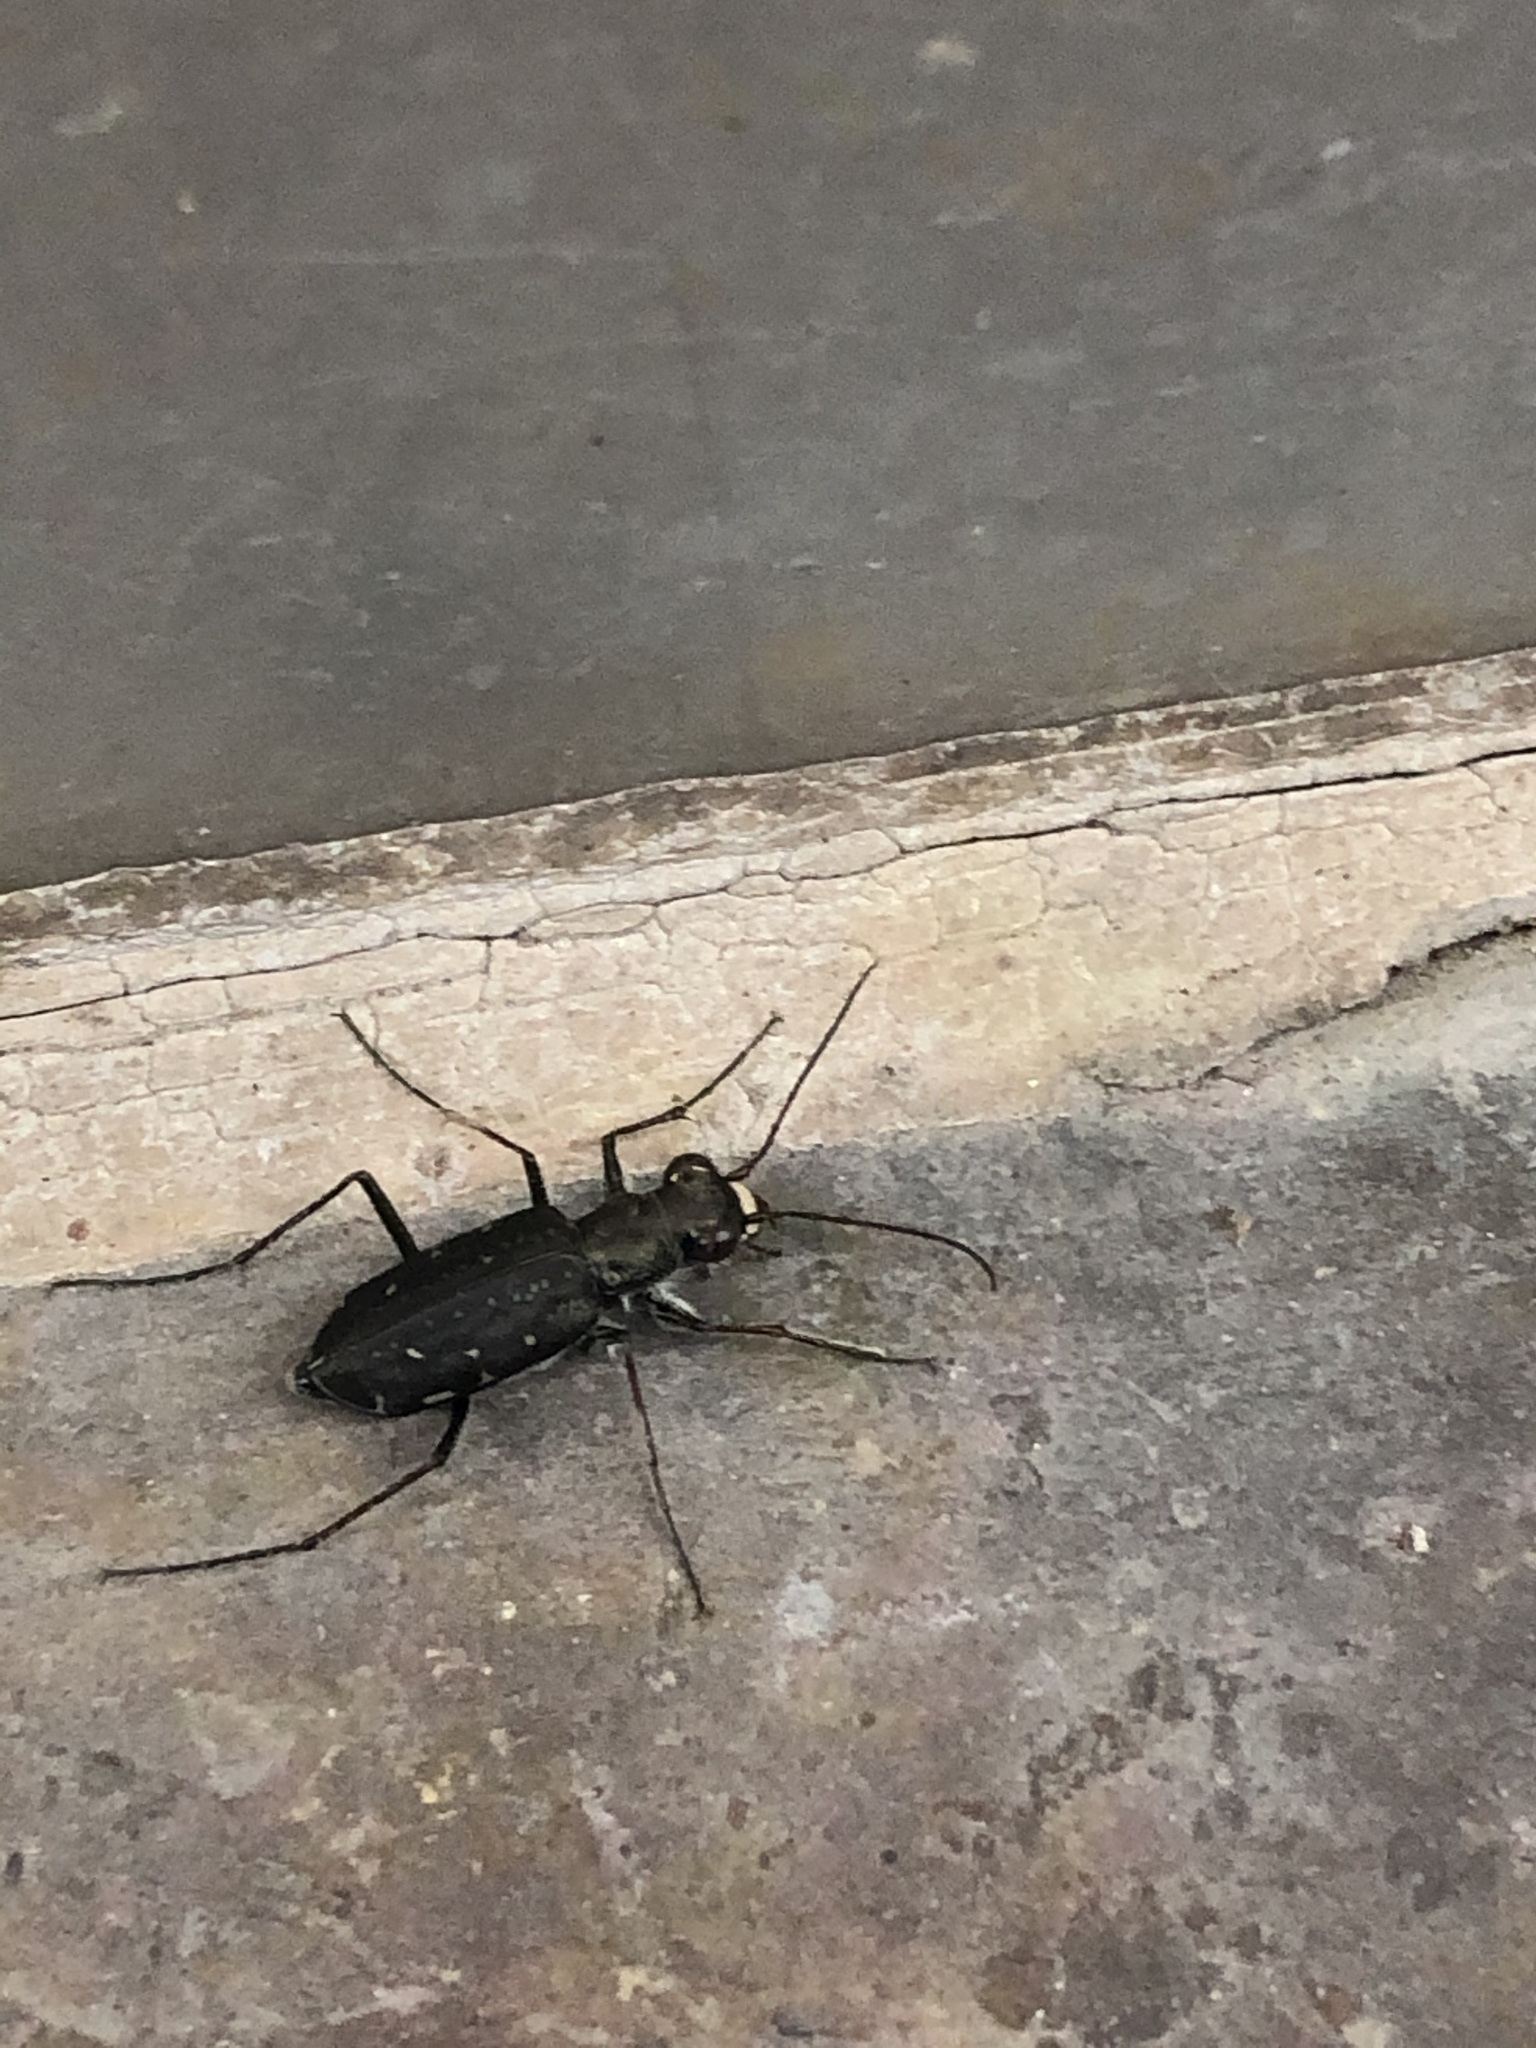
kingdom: Animalia
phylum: Arthropoda
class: Insecta
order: Coleoptera
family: Carabidae
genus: Cicindela
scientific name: Cicindela punctulata
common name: Punctured tiger beetle
